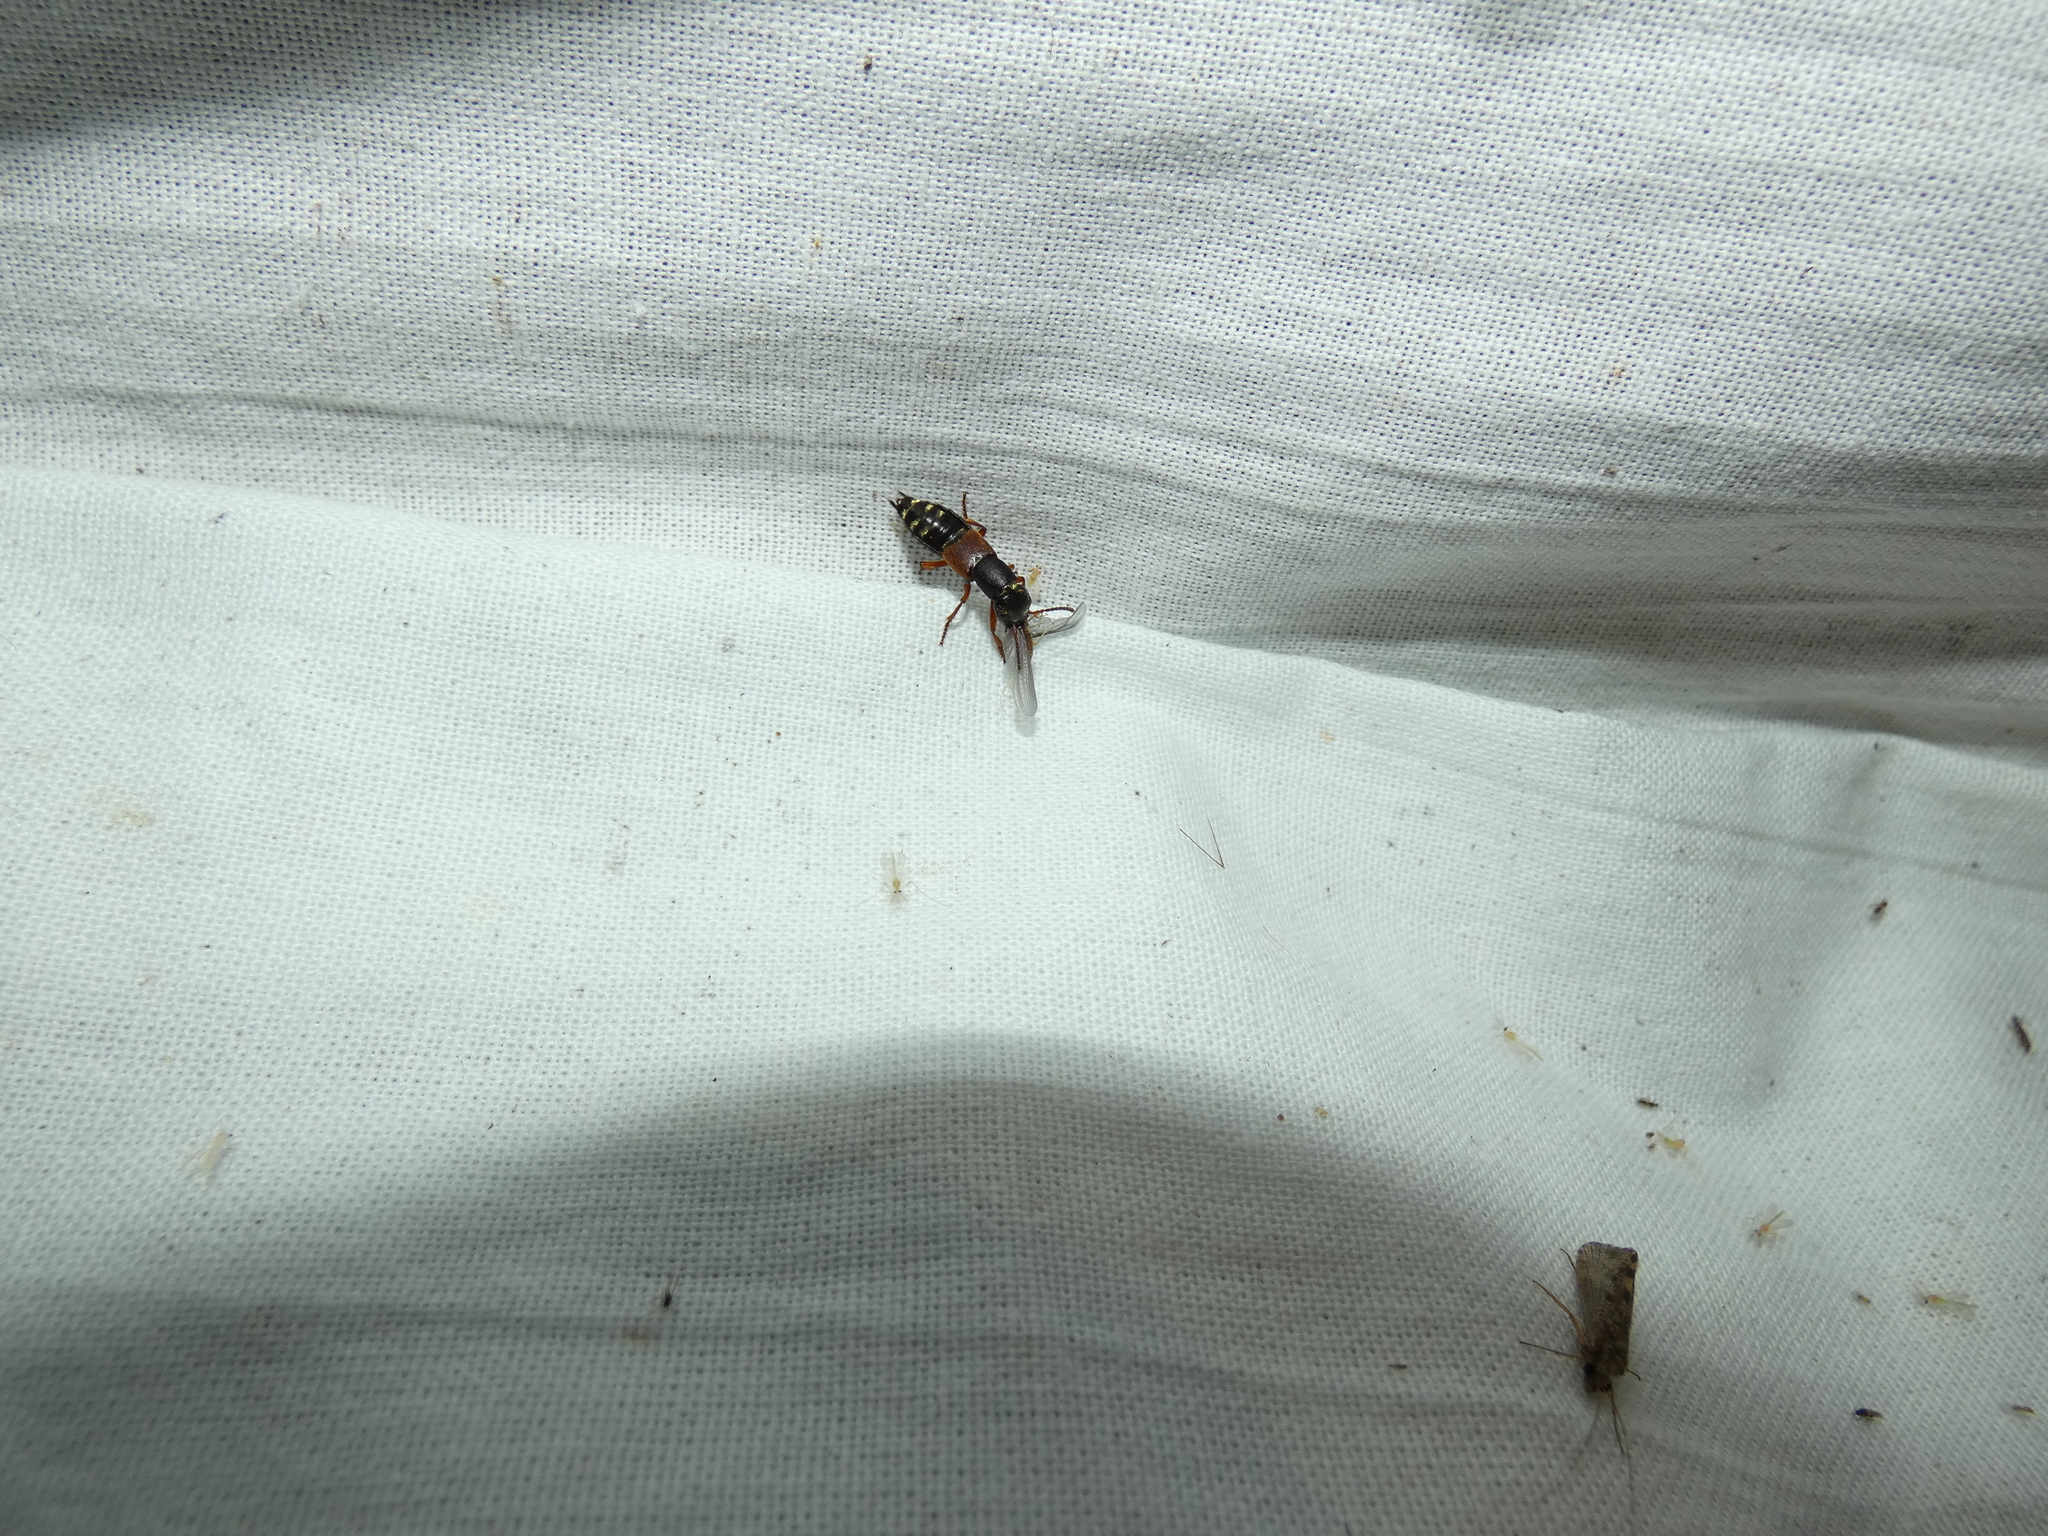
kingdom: Animalia
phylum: Arthropoda
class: Insecta
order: Coleoptera
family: Staphylinidae
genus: Staphylinus
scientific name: Staphylinus erythropterus
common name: Staph beetle
